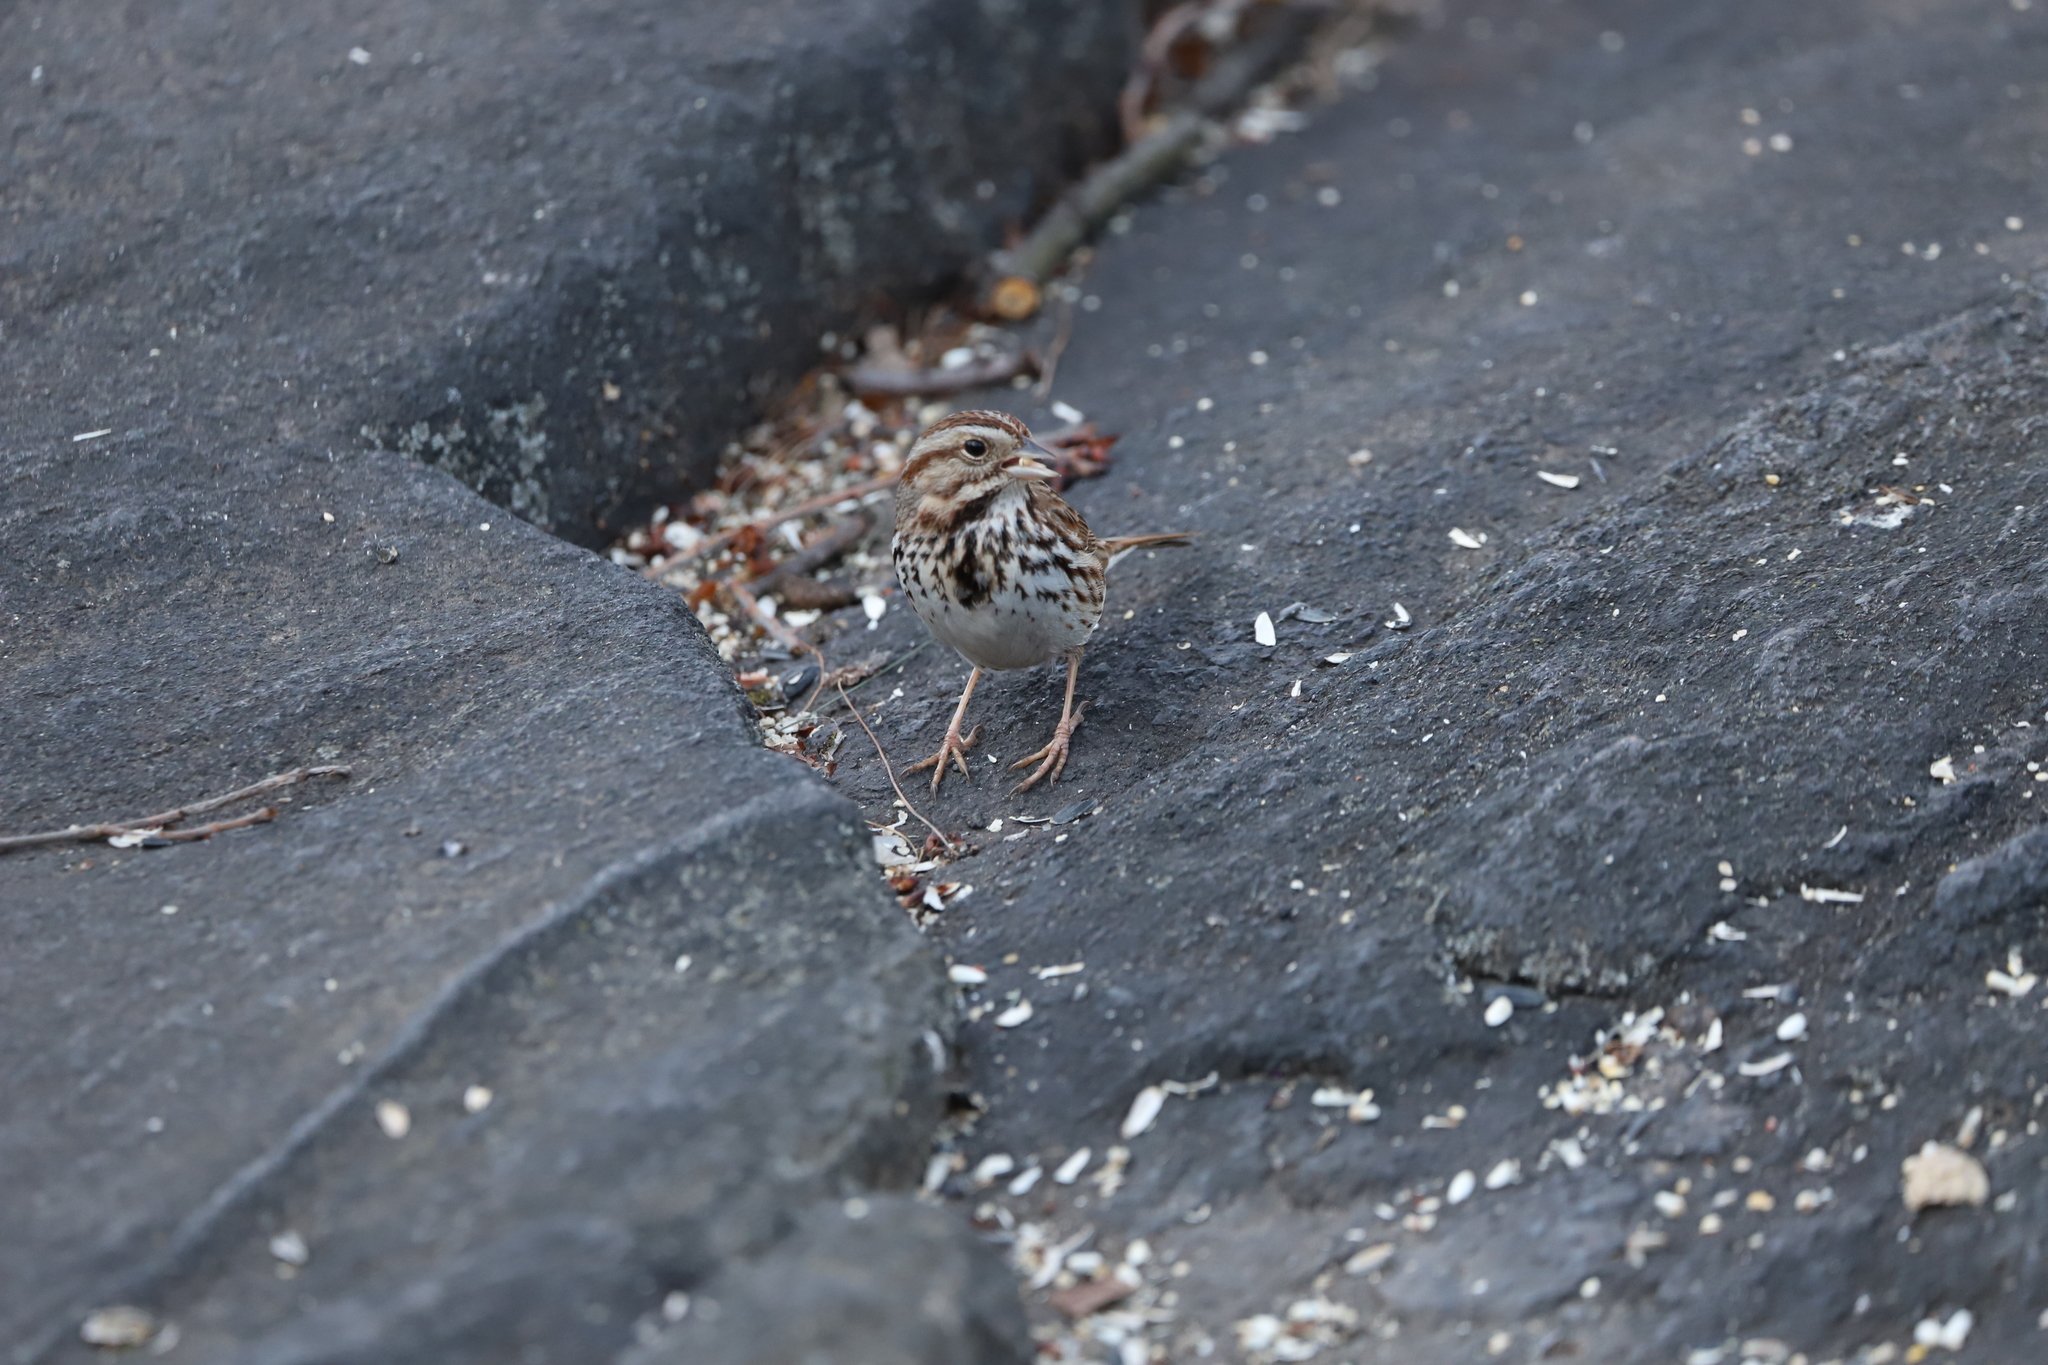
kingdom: Animalia
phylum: Chordata
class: Aves
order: Passeriformes
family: Passerellidae
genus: Melospiza
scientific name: Melospiza melodia
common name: Song sparrow
